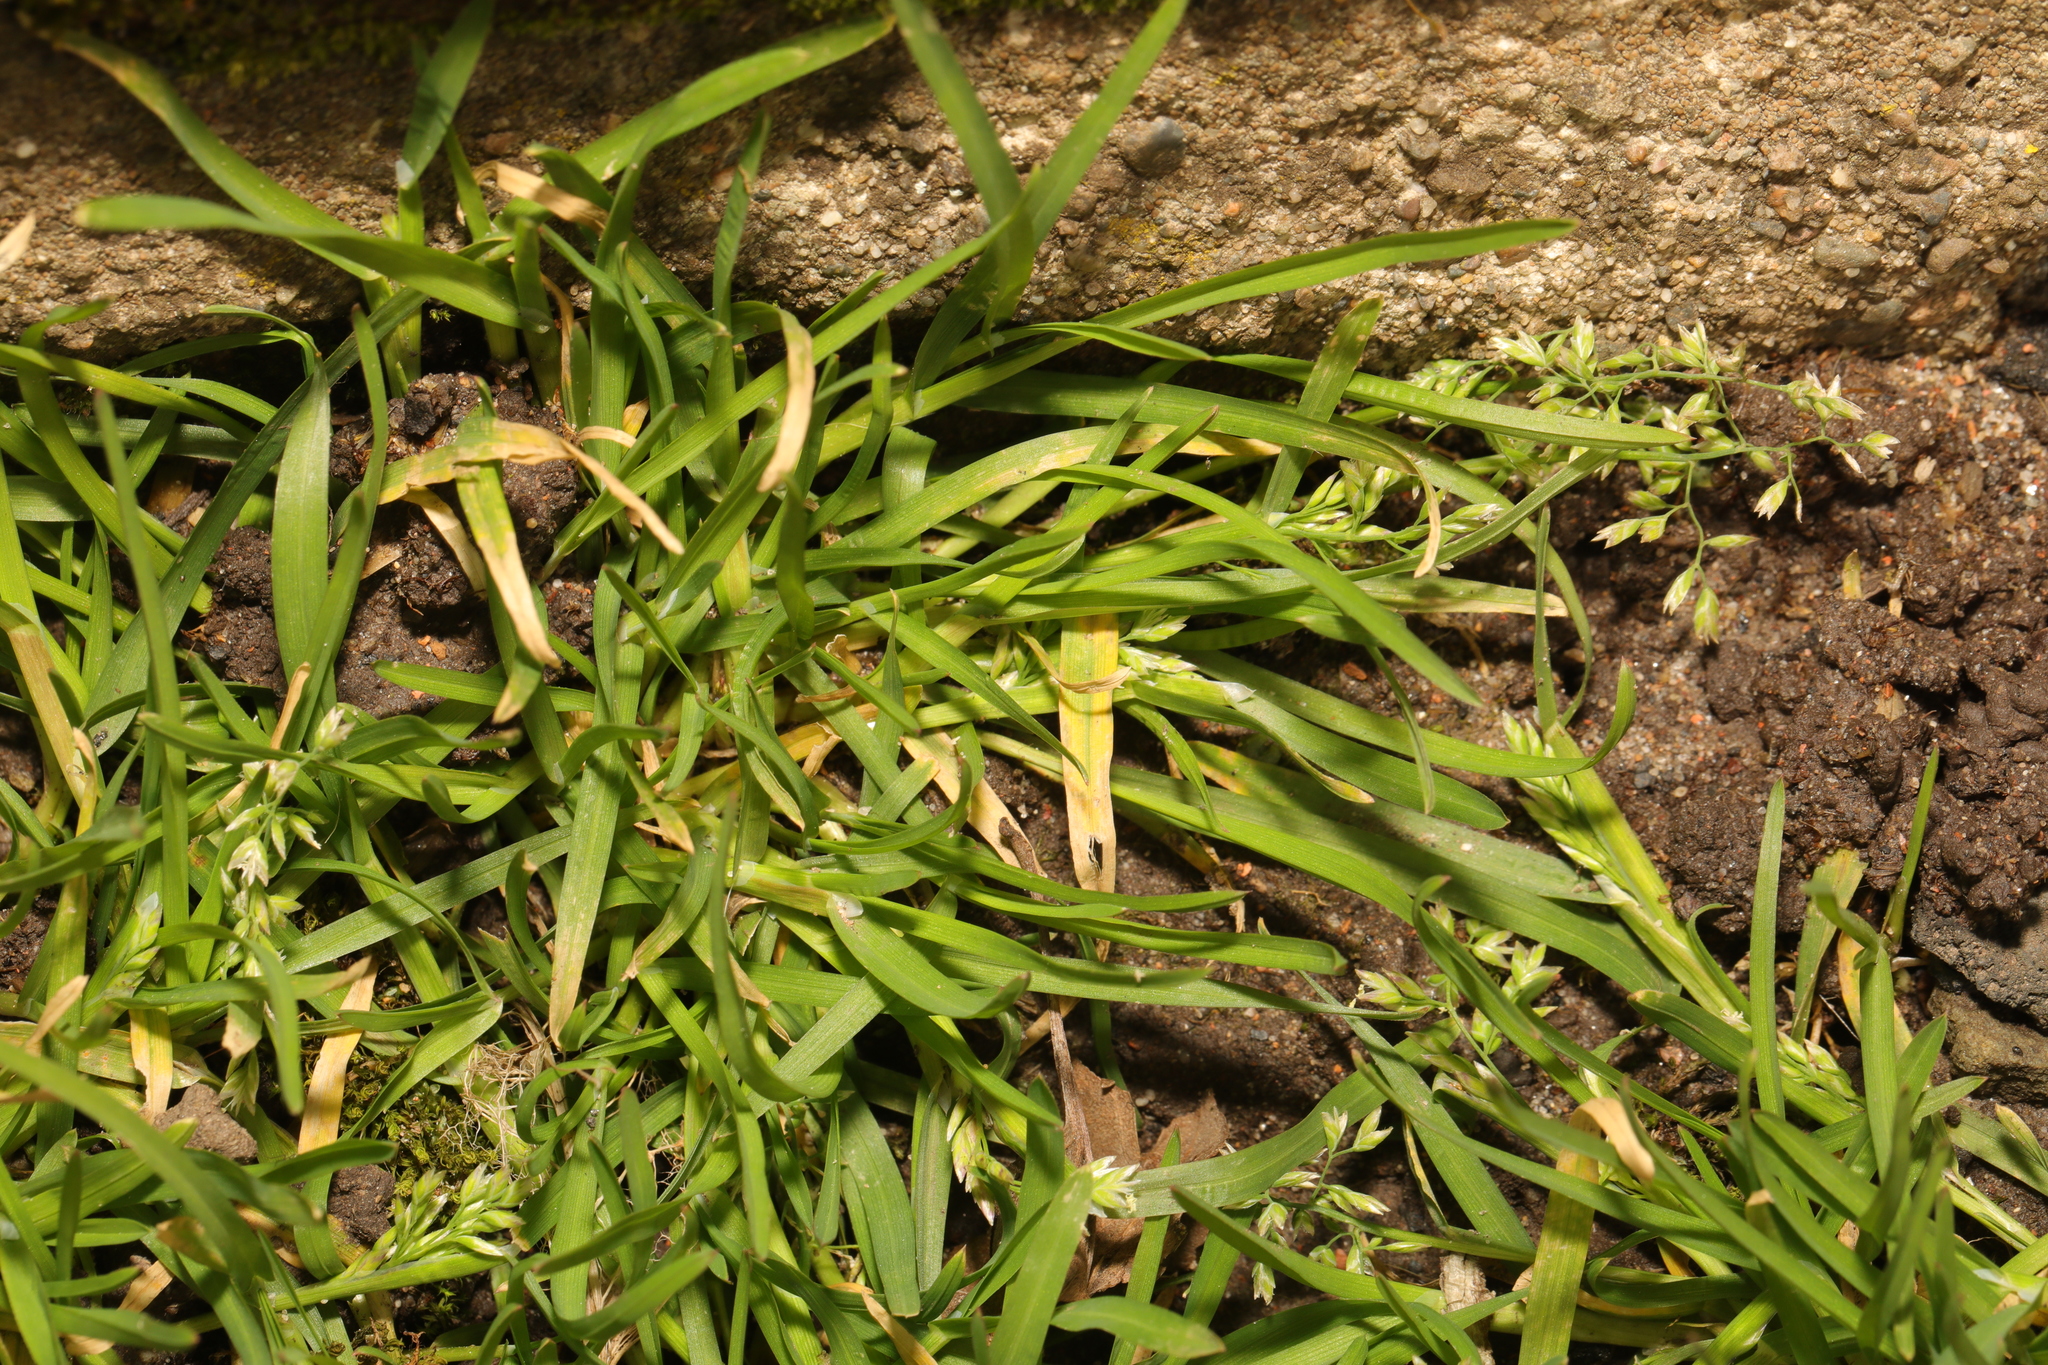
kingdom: Plantae
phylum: Tracheophyta
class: Liliopsida
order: Poales
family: Poaceae
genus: Poa
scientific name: Poa annua
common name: Annual bluegrass
